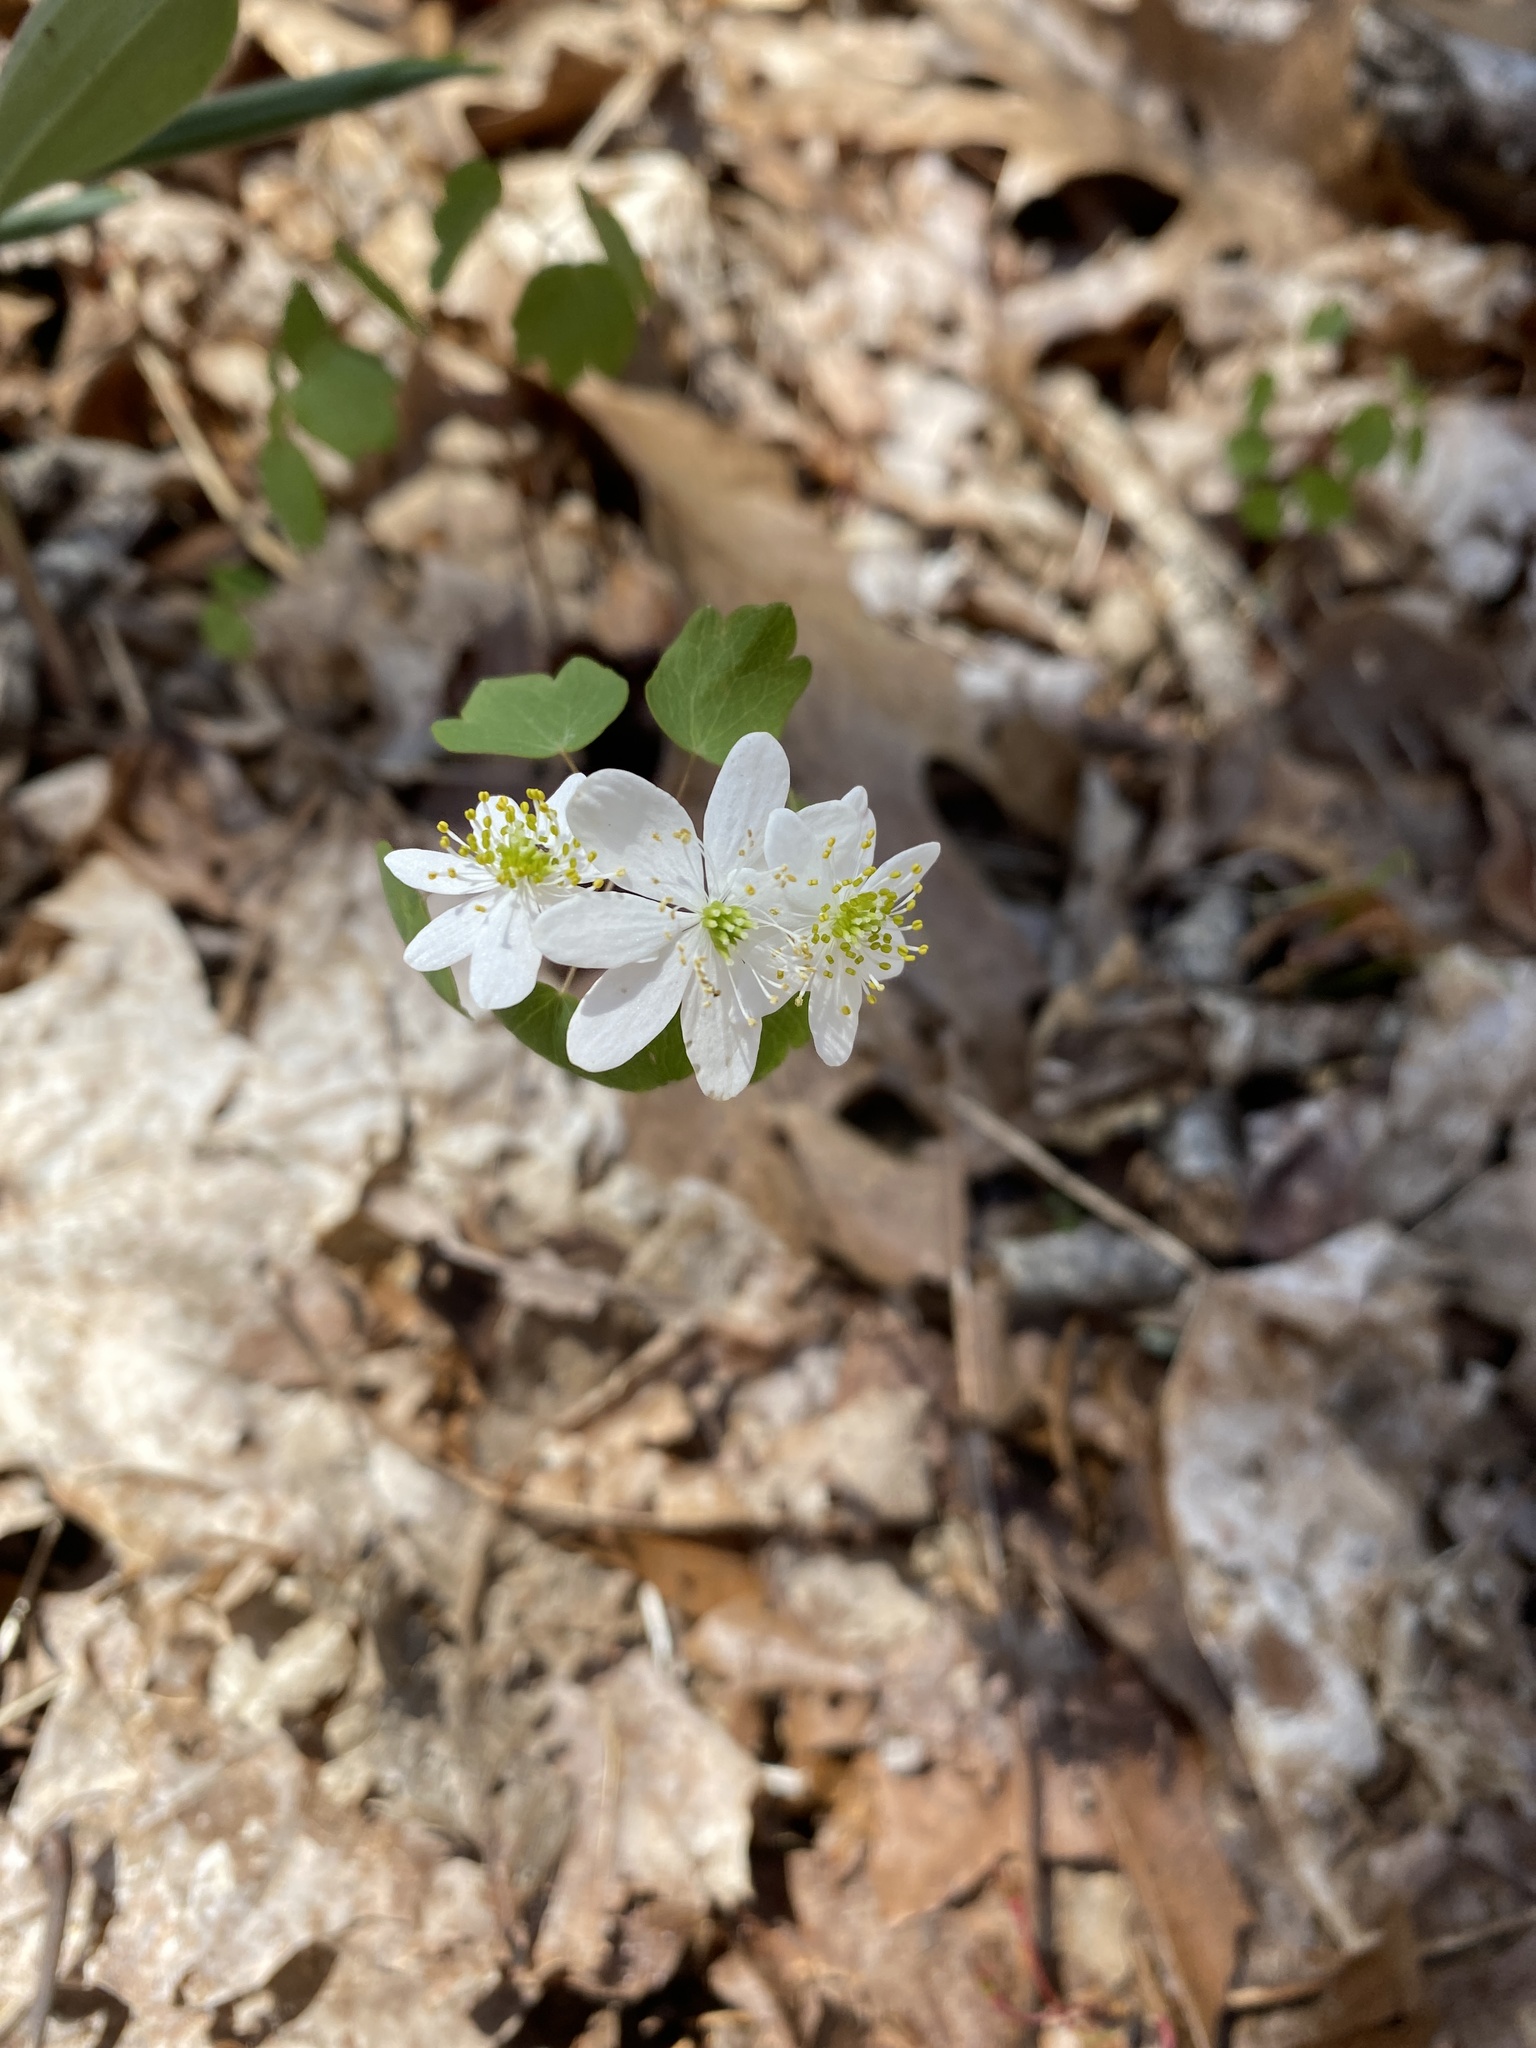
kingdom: Plantae
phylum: Tracheophyta
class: Magnoliopsida
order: Ranunculales
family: Ranunculaceae
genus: Thalictrum
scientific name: Thalictrum thalictroides
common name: Rue-anemone
